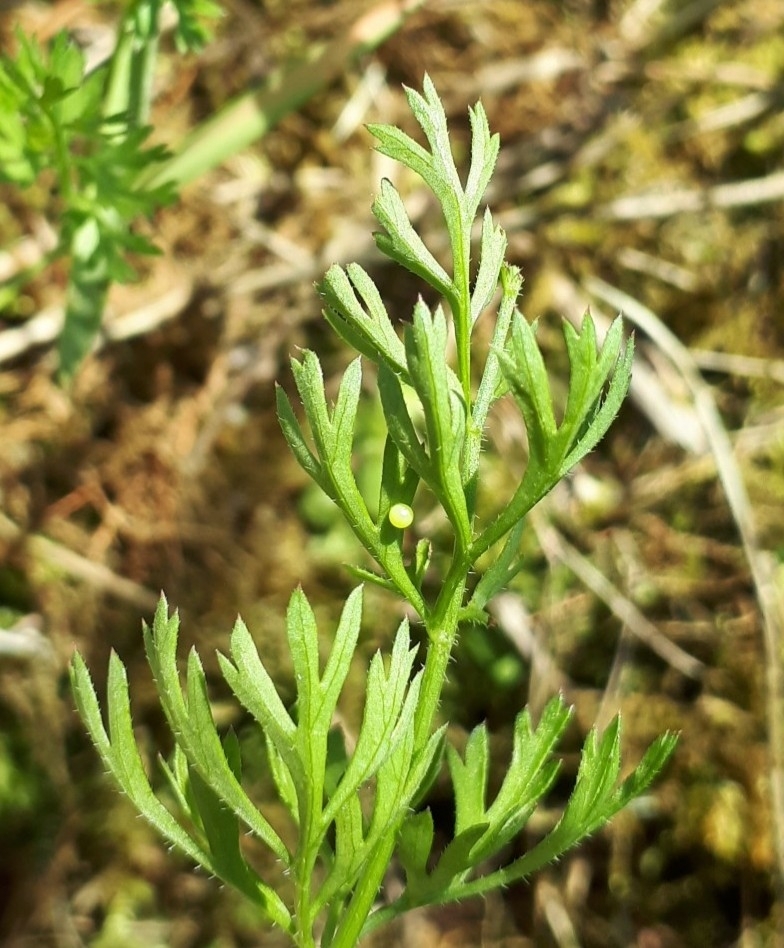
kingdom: Animalia
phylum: Arthropoda
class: Insecta
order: Lepidoptera
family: Papilionidae
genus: Papilio
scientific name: Papilio machaon
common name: Swallowtail
